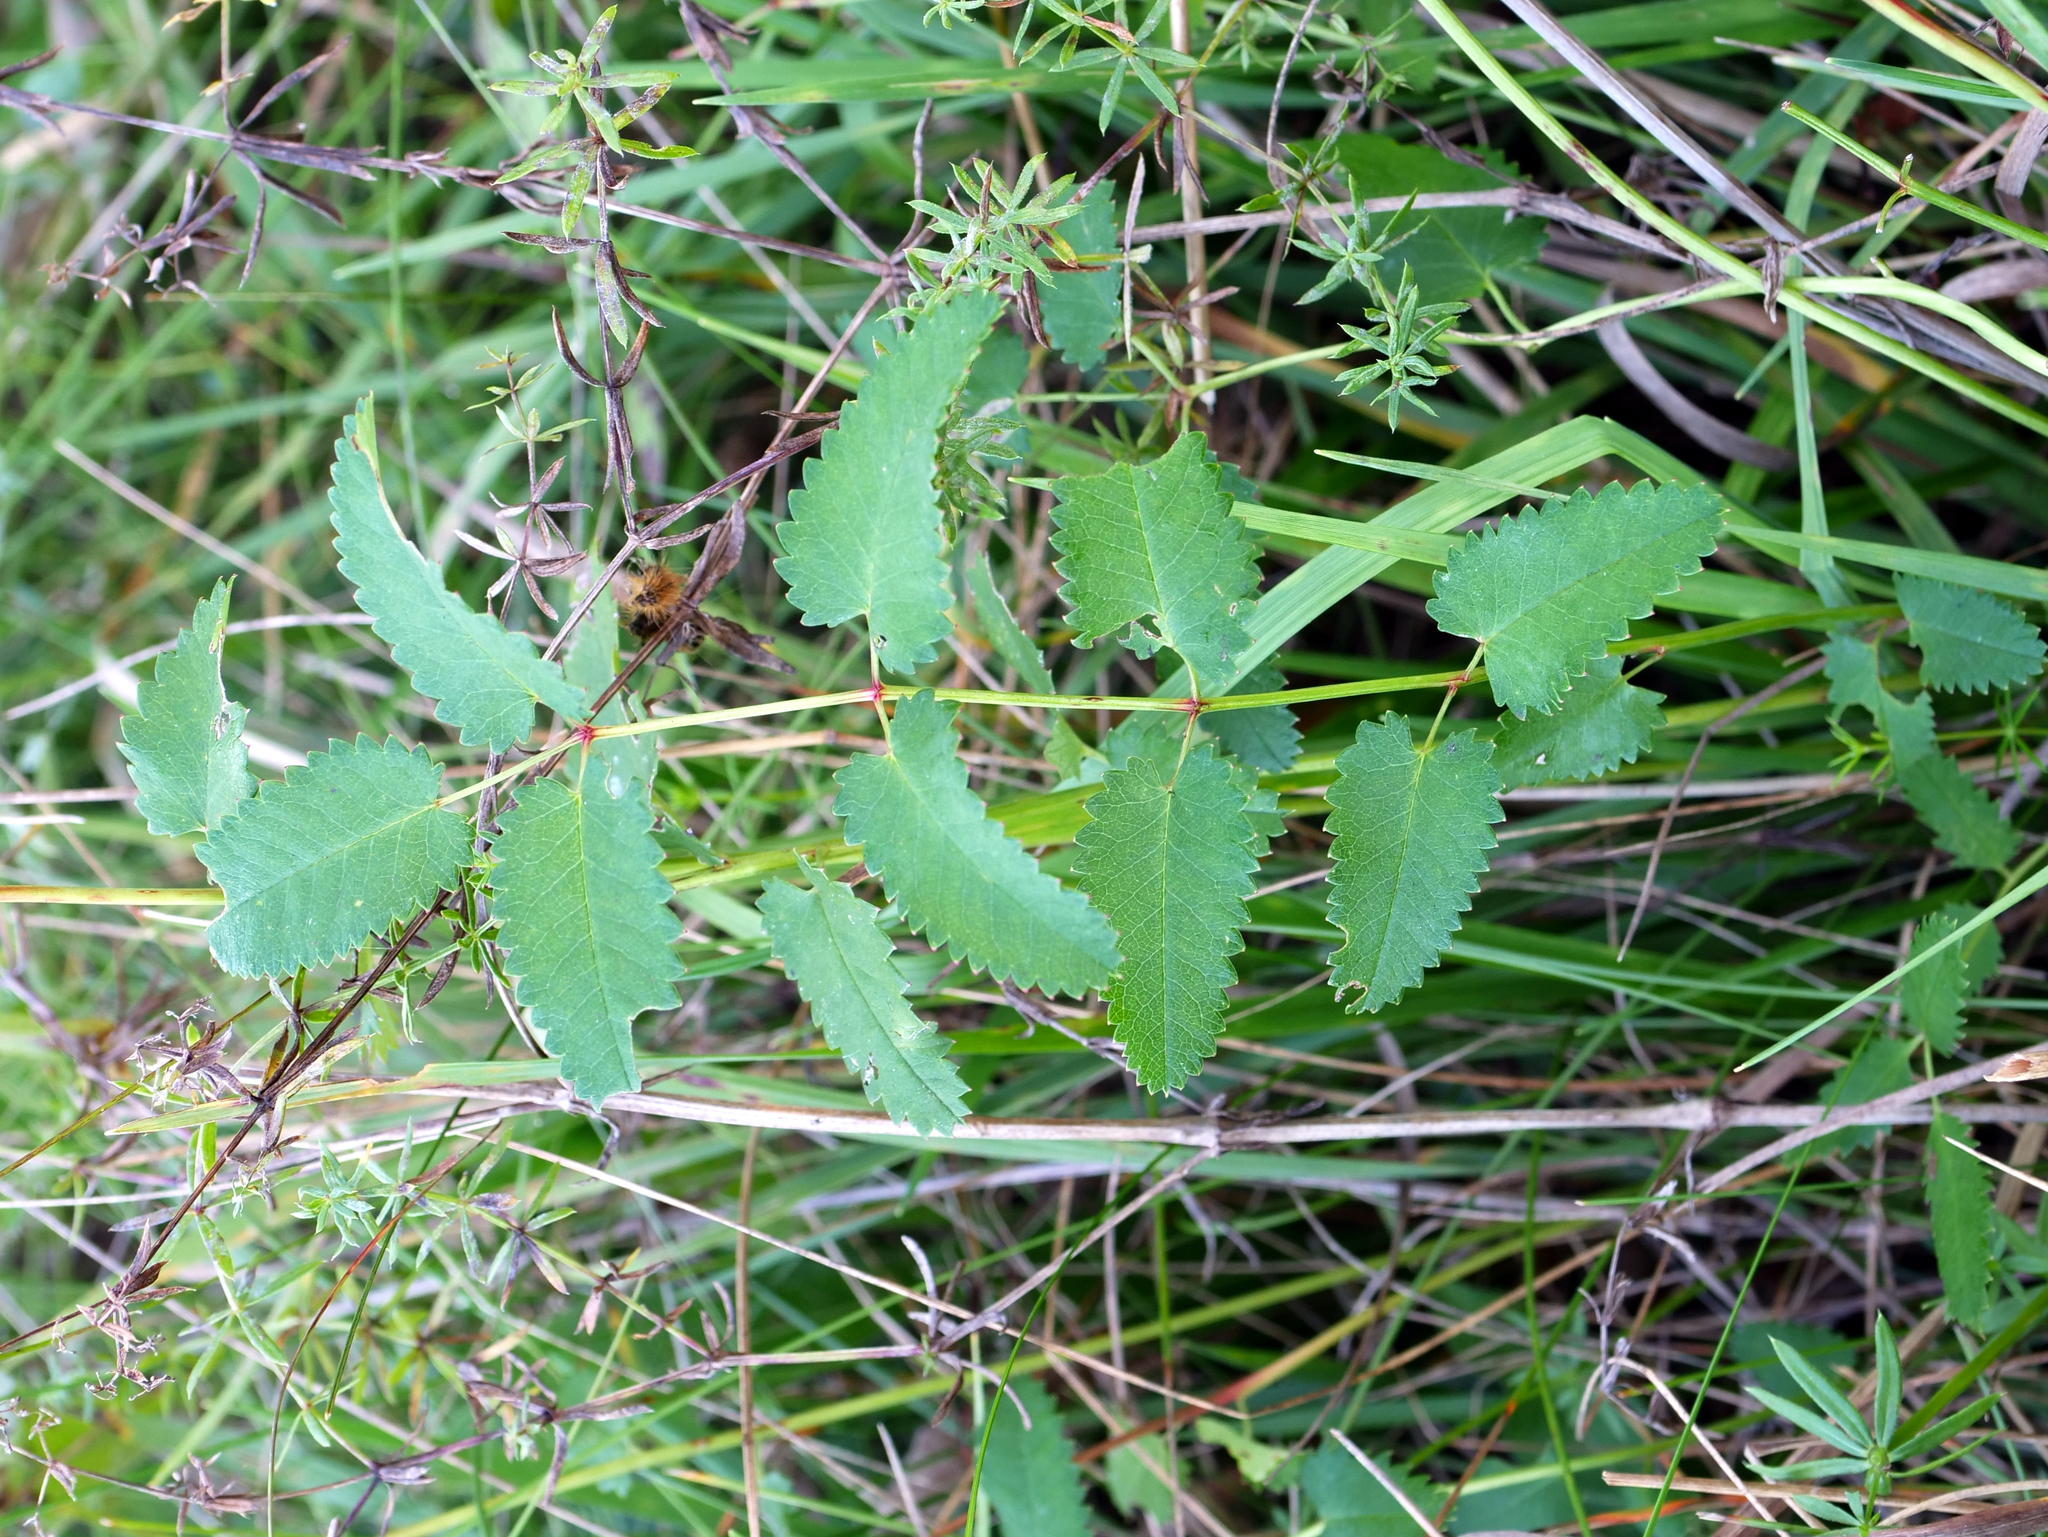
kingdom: Plantae
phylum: Tracheophyta
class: Magnoliopsida
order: Rosales
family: Rosaceae
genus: Sanguisorba
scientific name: Sanguisorba officinalis
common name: Great burnet
